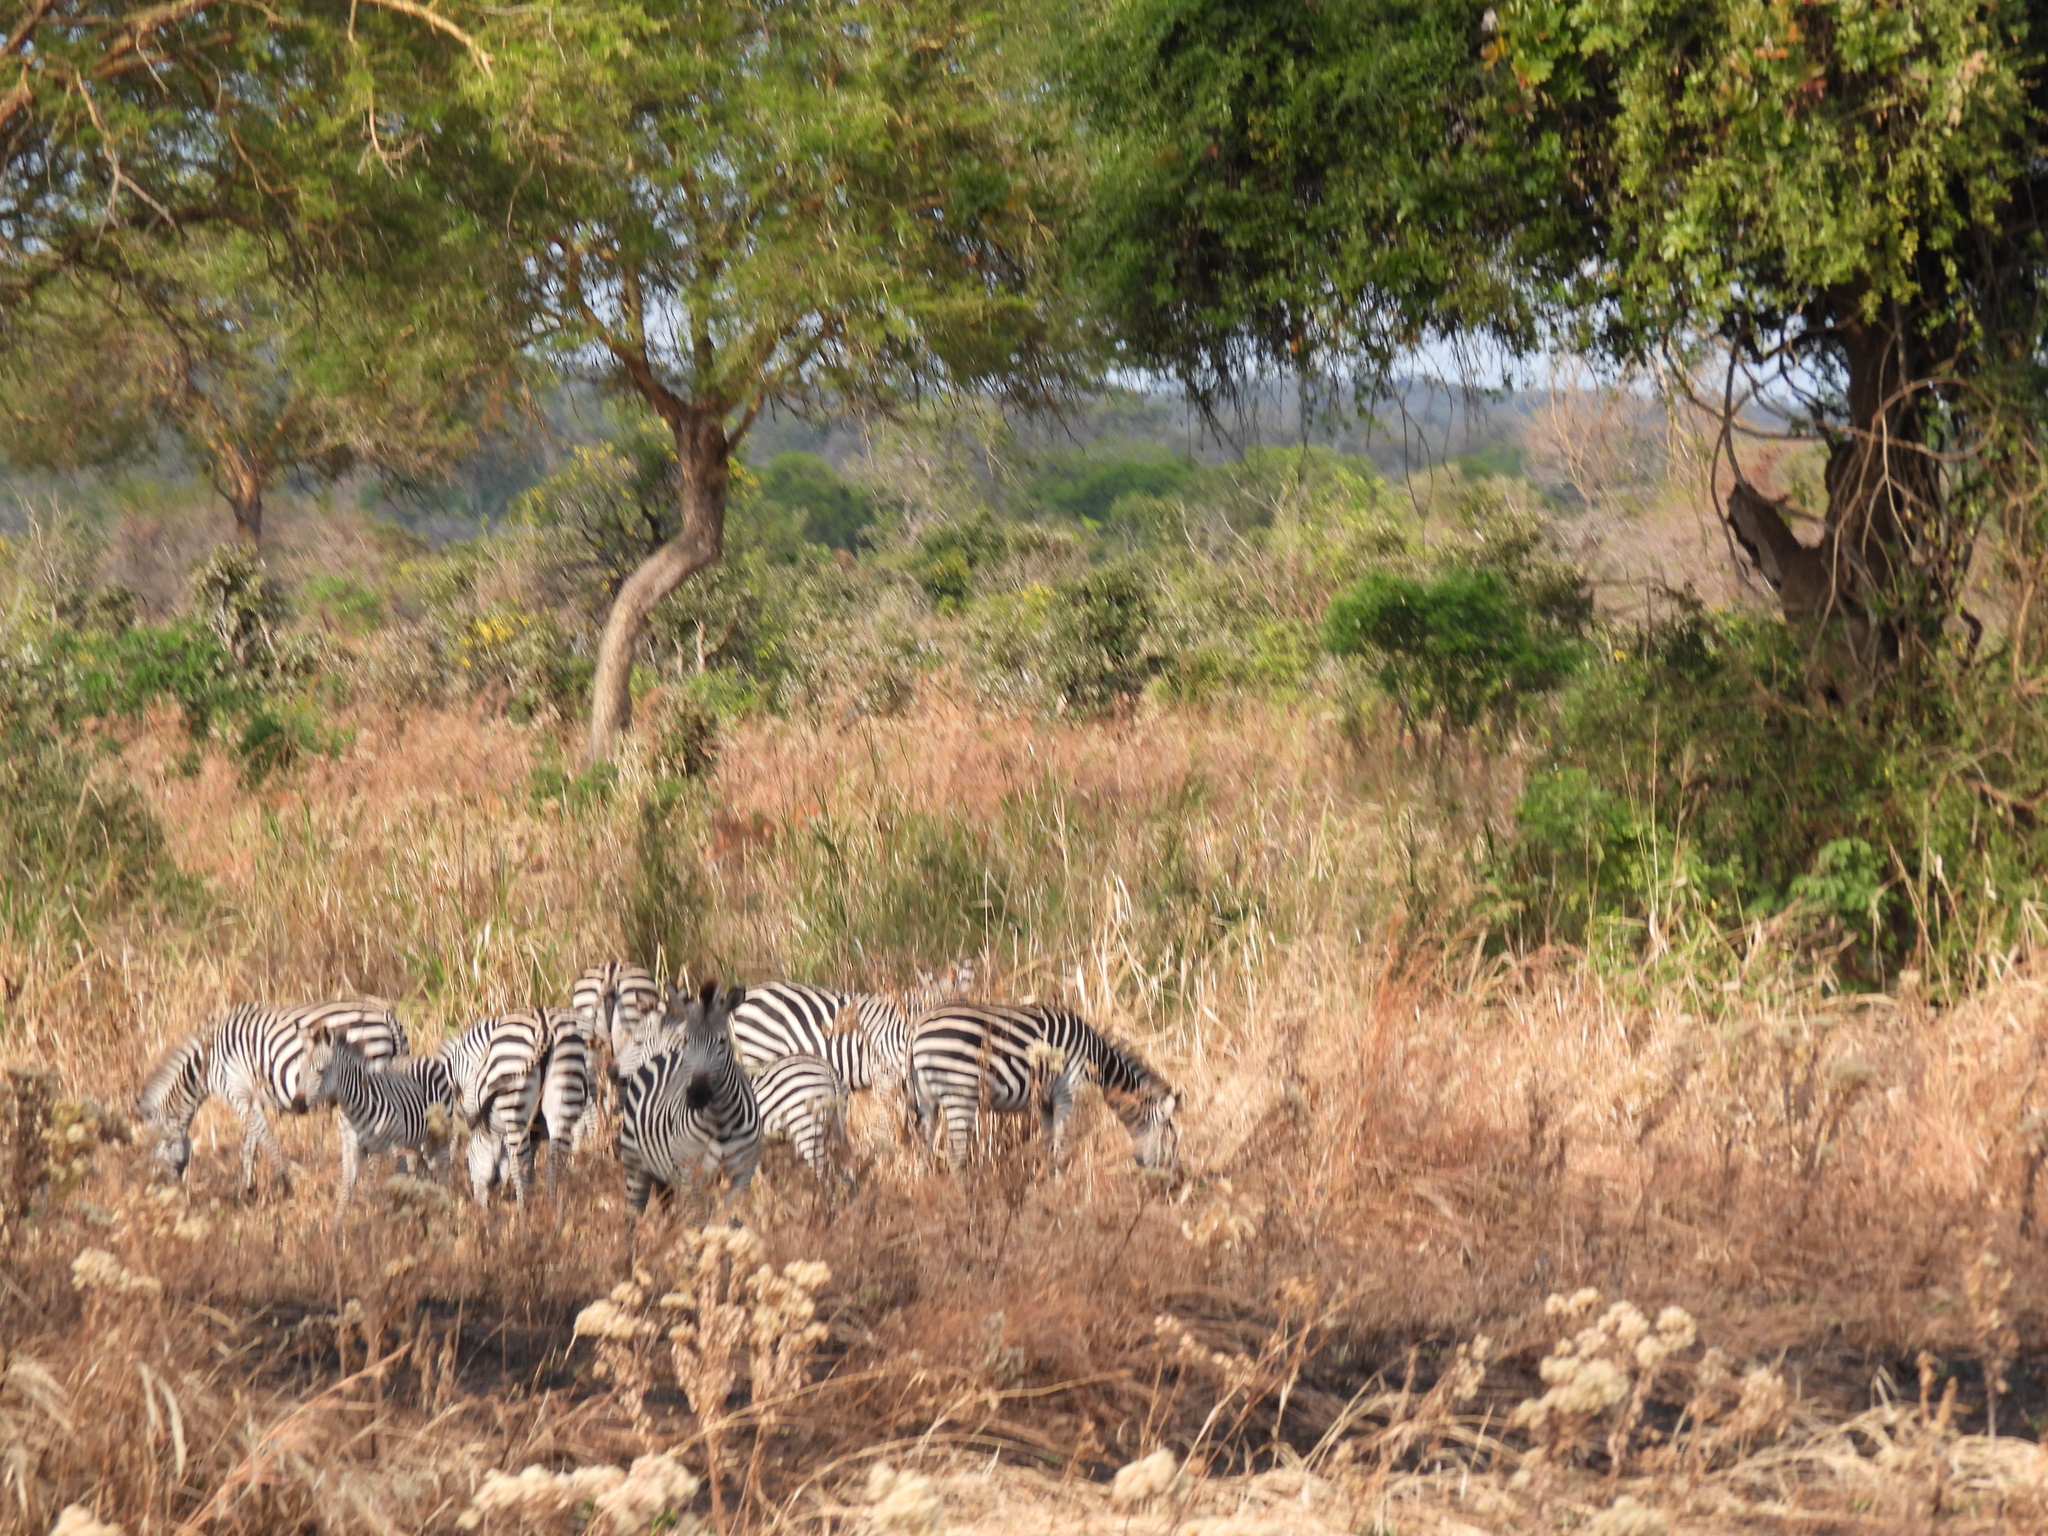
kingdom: Animalia
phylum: Chordata
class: Mammalia
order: Perissodactyla
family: Equidae
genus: Equus
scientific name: Equus quagga
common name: Plains zebra
